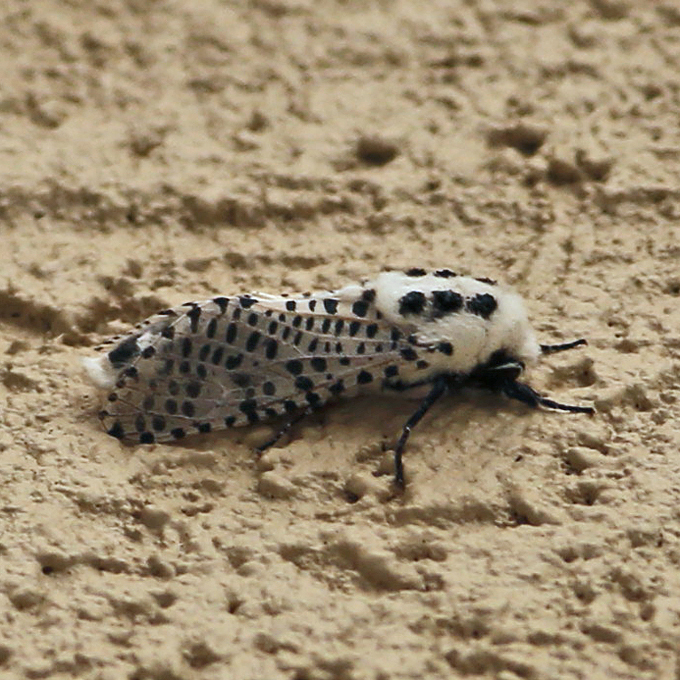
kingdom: Animalia
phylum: Arthropoda
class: Insecta
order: Lepidoptera
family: Cossidae
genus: Zeuzera
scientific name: Zeuzera pyrina
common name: Leopard moth
